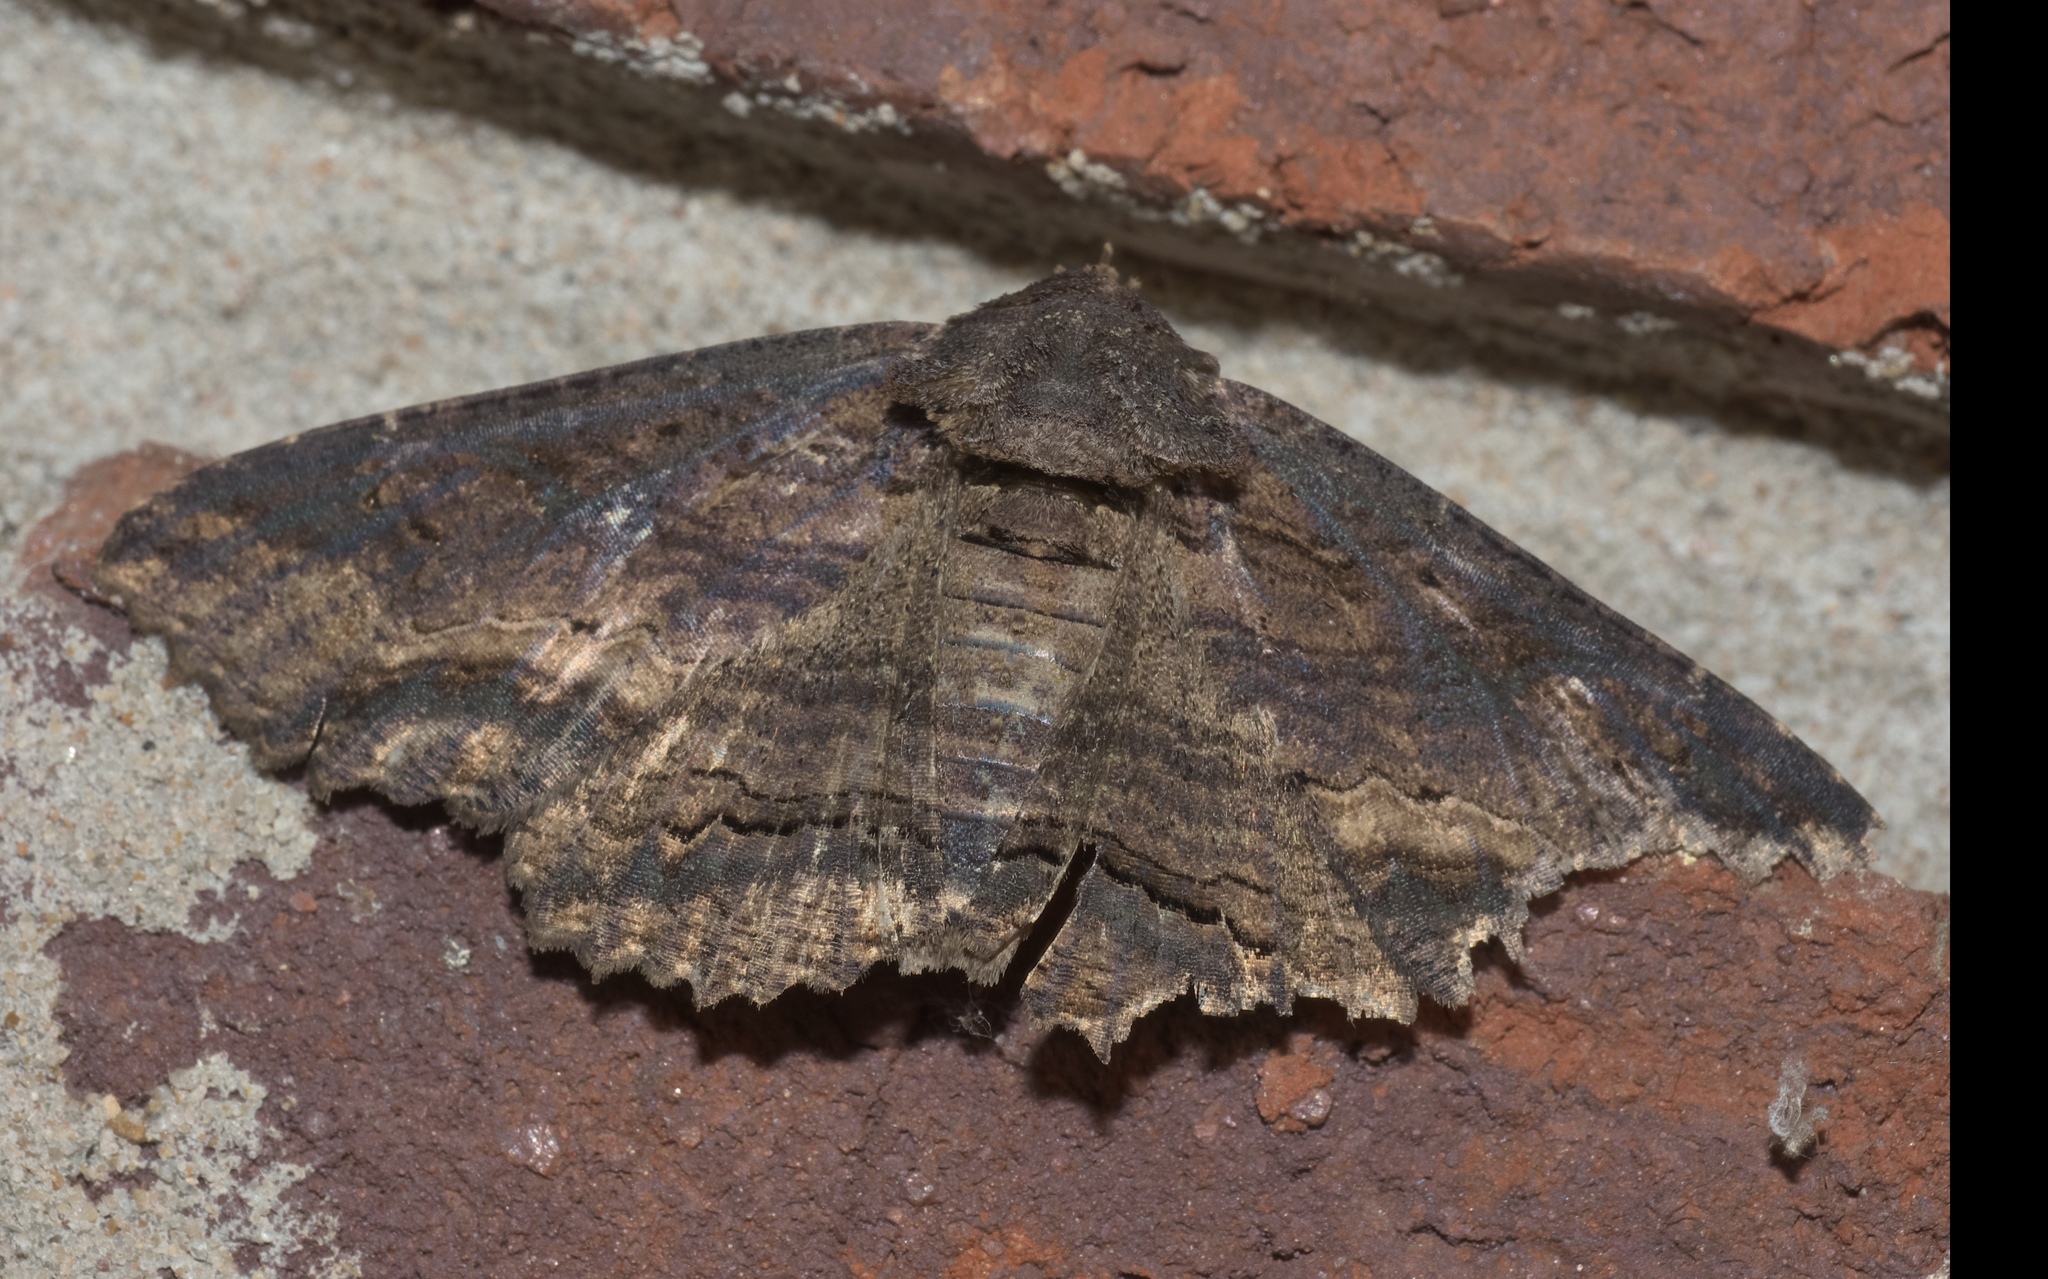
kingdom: Animalia
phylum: Arthropoda
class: Insecta
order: Lepidoptera
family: Erebidae
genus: Zale
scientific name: Zale lunata
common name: Lunate zale moth
